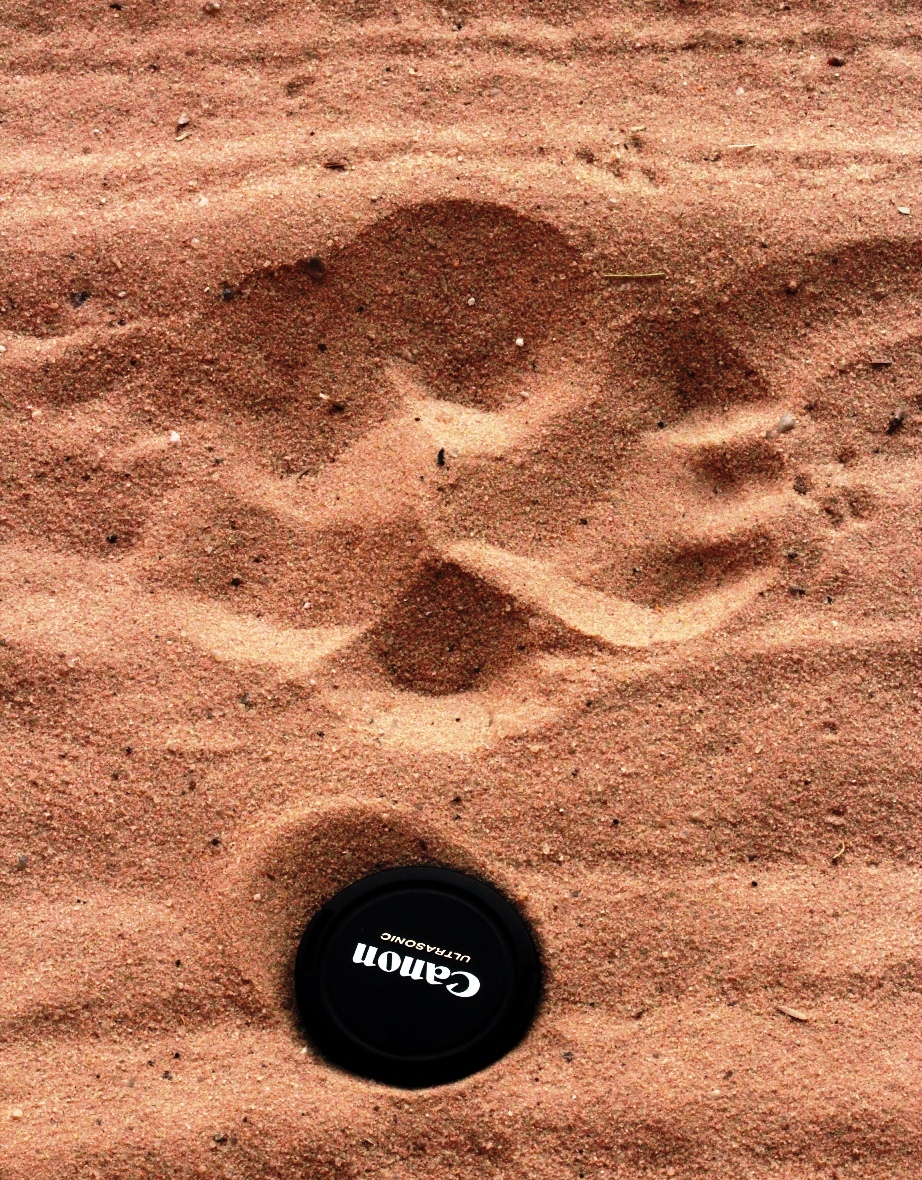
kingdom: Animalia
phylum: Chordata
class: Mammalia
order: Carnivora
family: Felidae
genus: Panthera
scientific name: Panthera leo
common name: Lion
